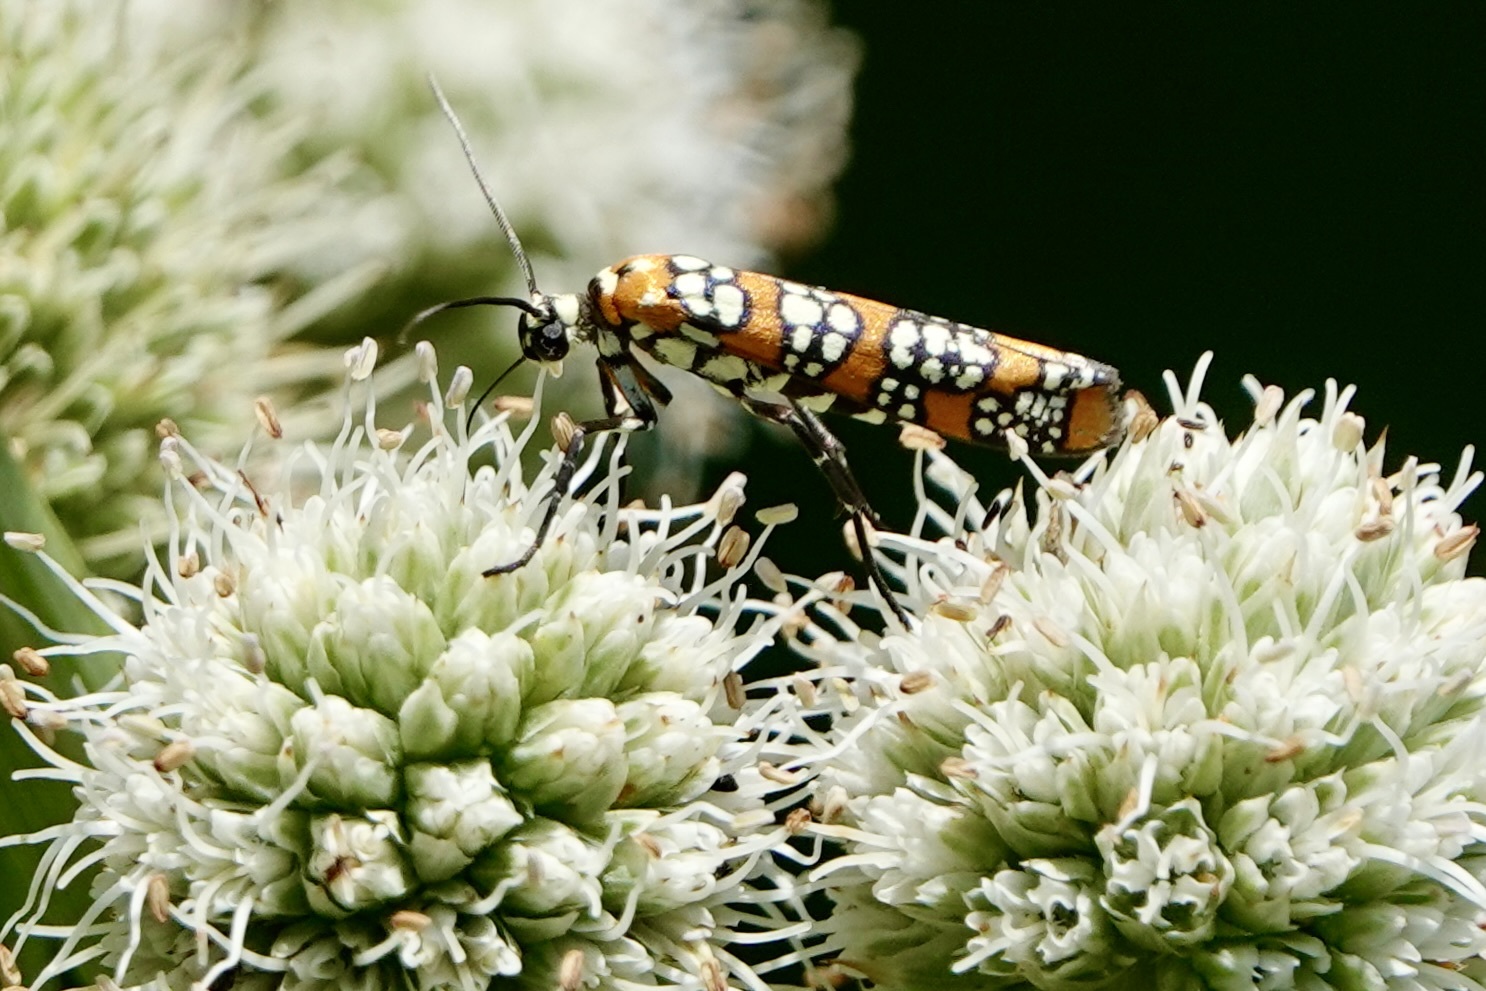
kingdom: Animalia
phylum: Arthropoda
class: Insecta
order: Lepidoptera
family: Attevidae
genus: Atteva
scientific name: Atteva punctella
